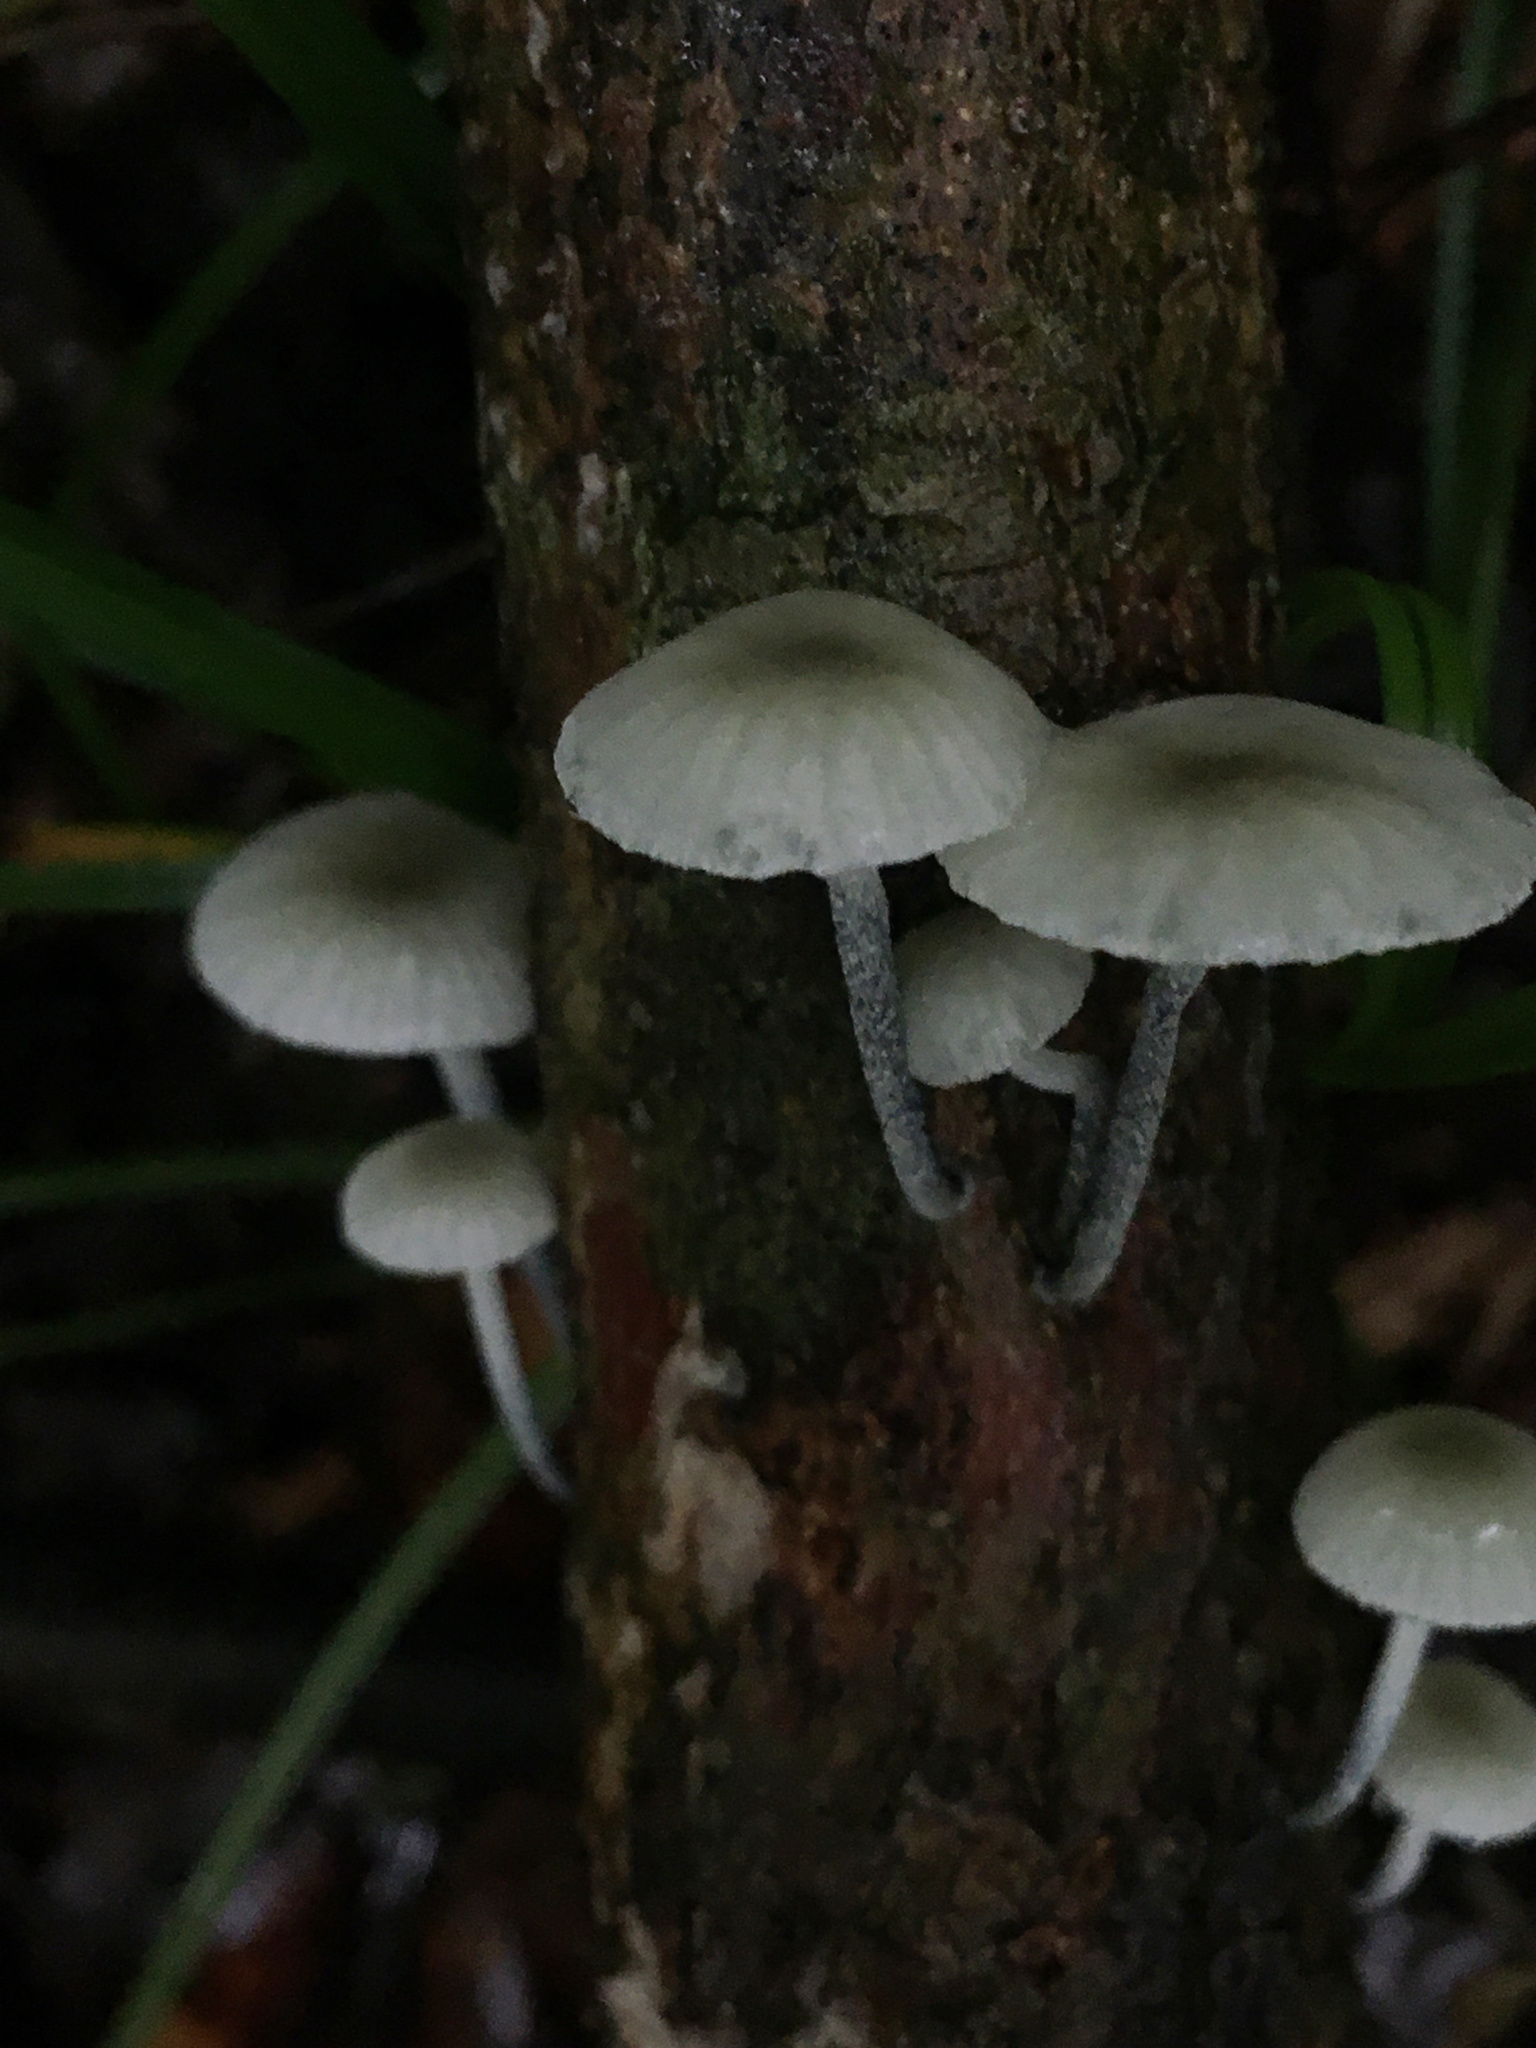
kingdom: Fungi
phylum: Basidiomycota
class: Agaricomycetes
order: Agaricales
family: Marasmiaceae
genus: Tetrapyrgos
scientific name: Tetrapyrgos nigripes
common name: Black-stalked marasmius
